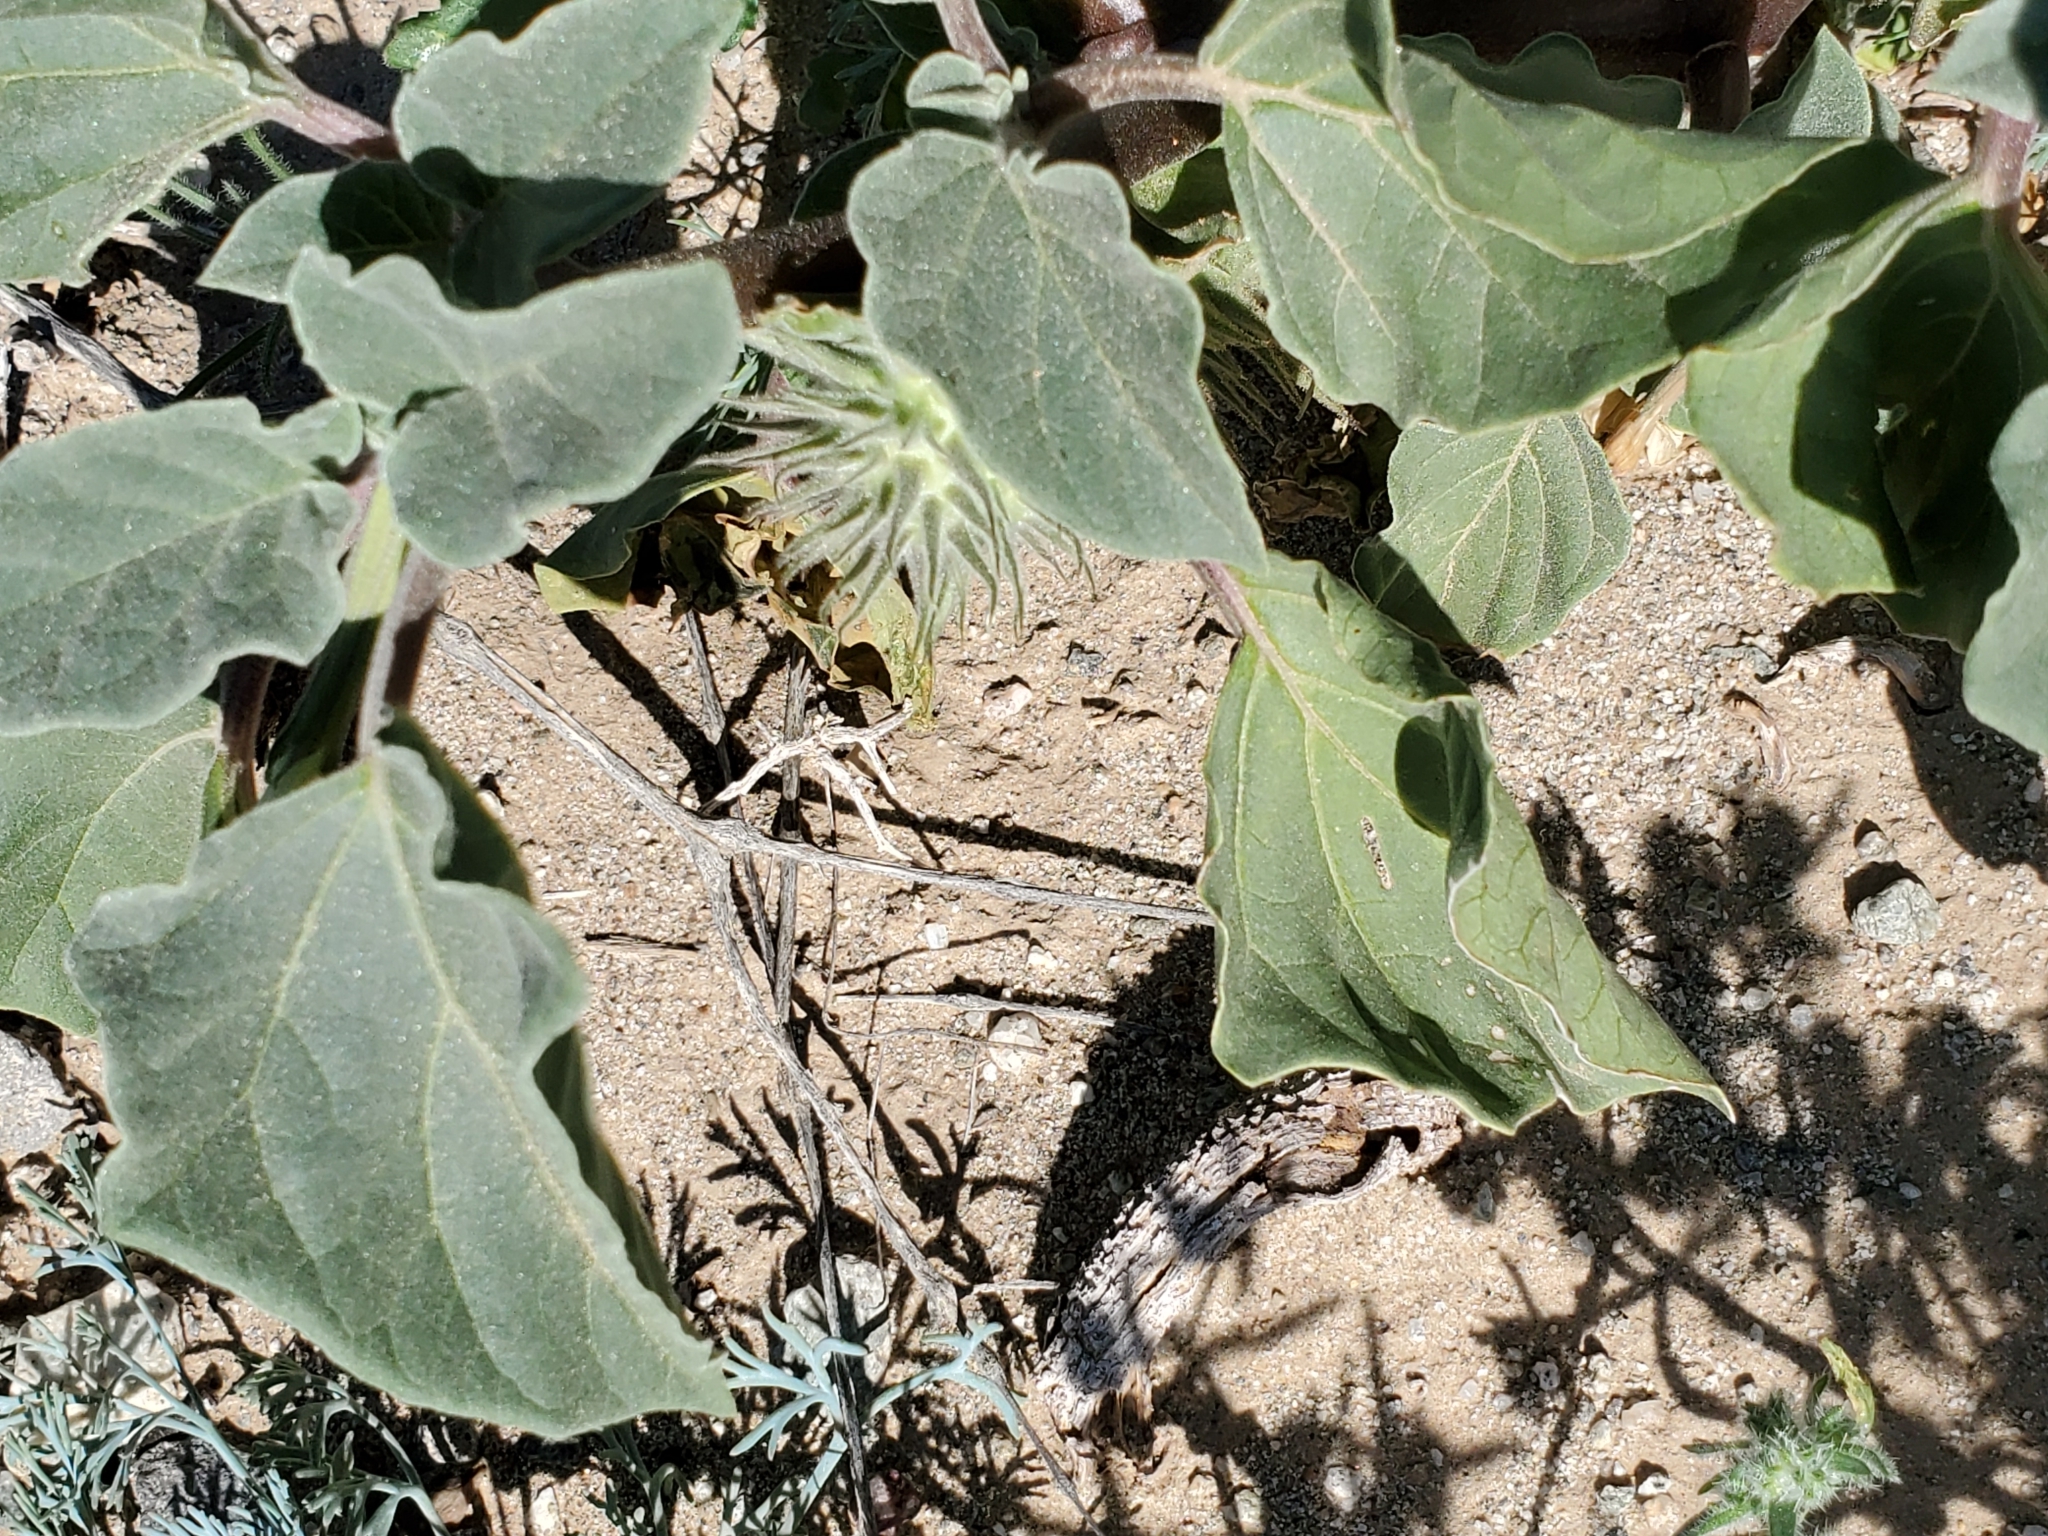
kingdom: Plantae
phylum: Tracheophyta
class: Magnoliopsida
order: Solanales
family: Solanaceae
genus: Datura
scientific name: Datura discolor
